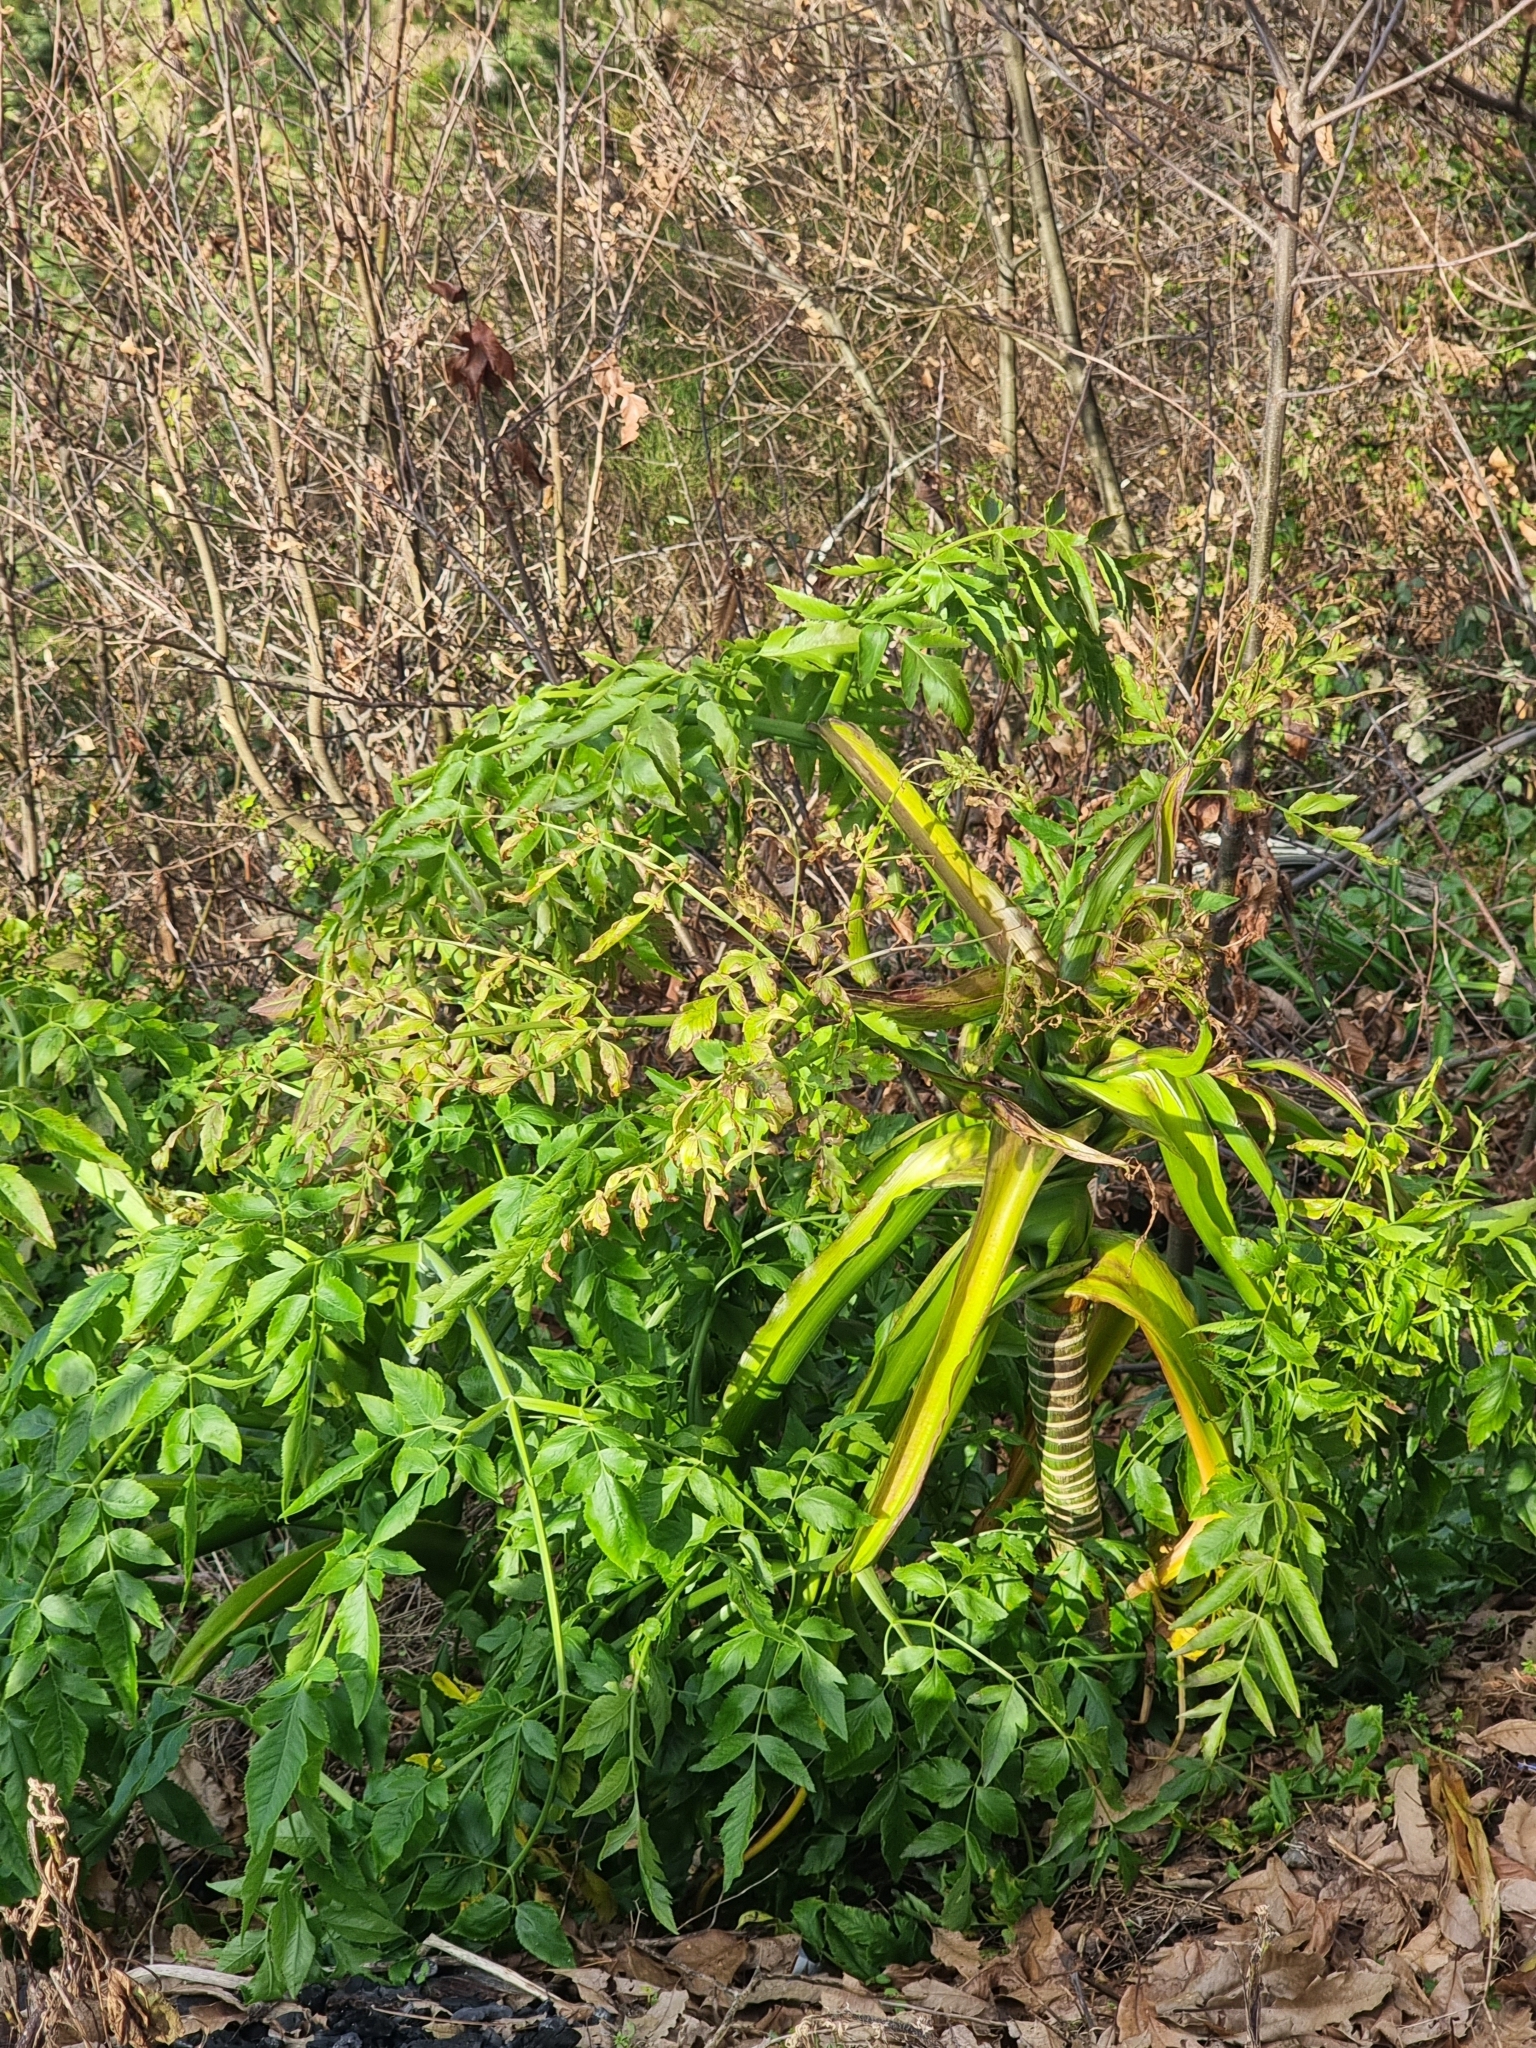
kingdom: Plantae
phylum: Tracheophyta
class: Magnoliopsida
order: Apiales
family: Apiaceae
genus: Daucus
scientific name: Daucus decipiens
